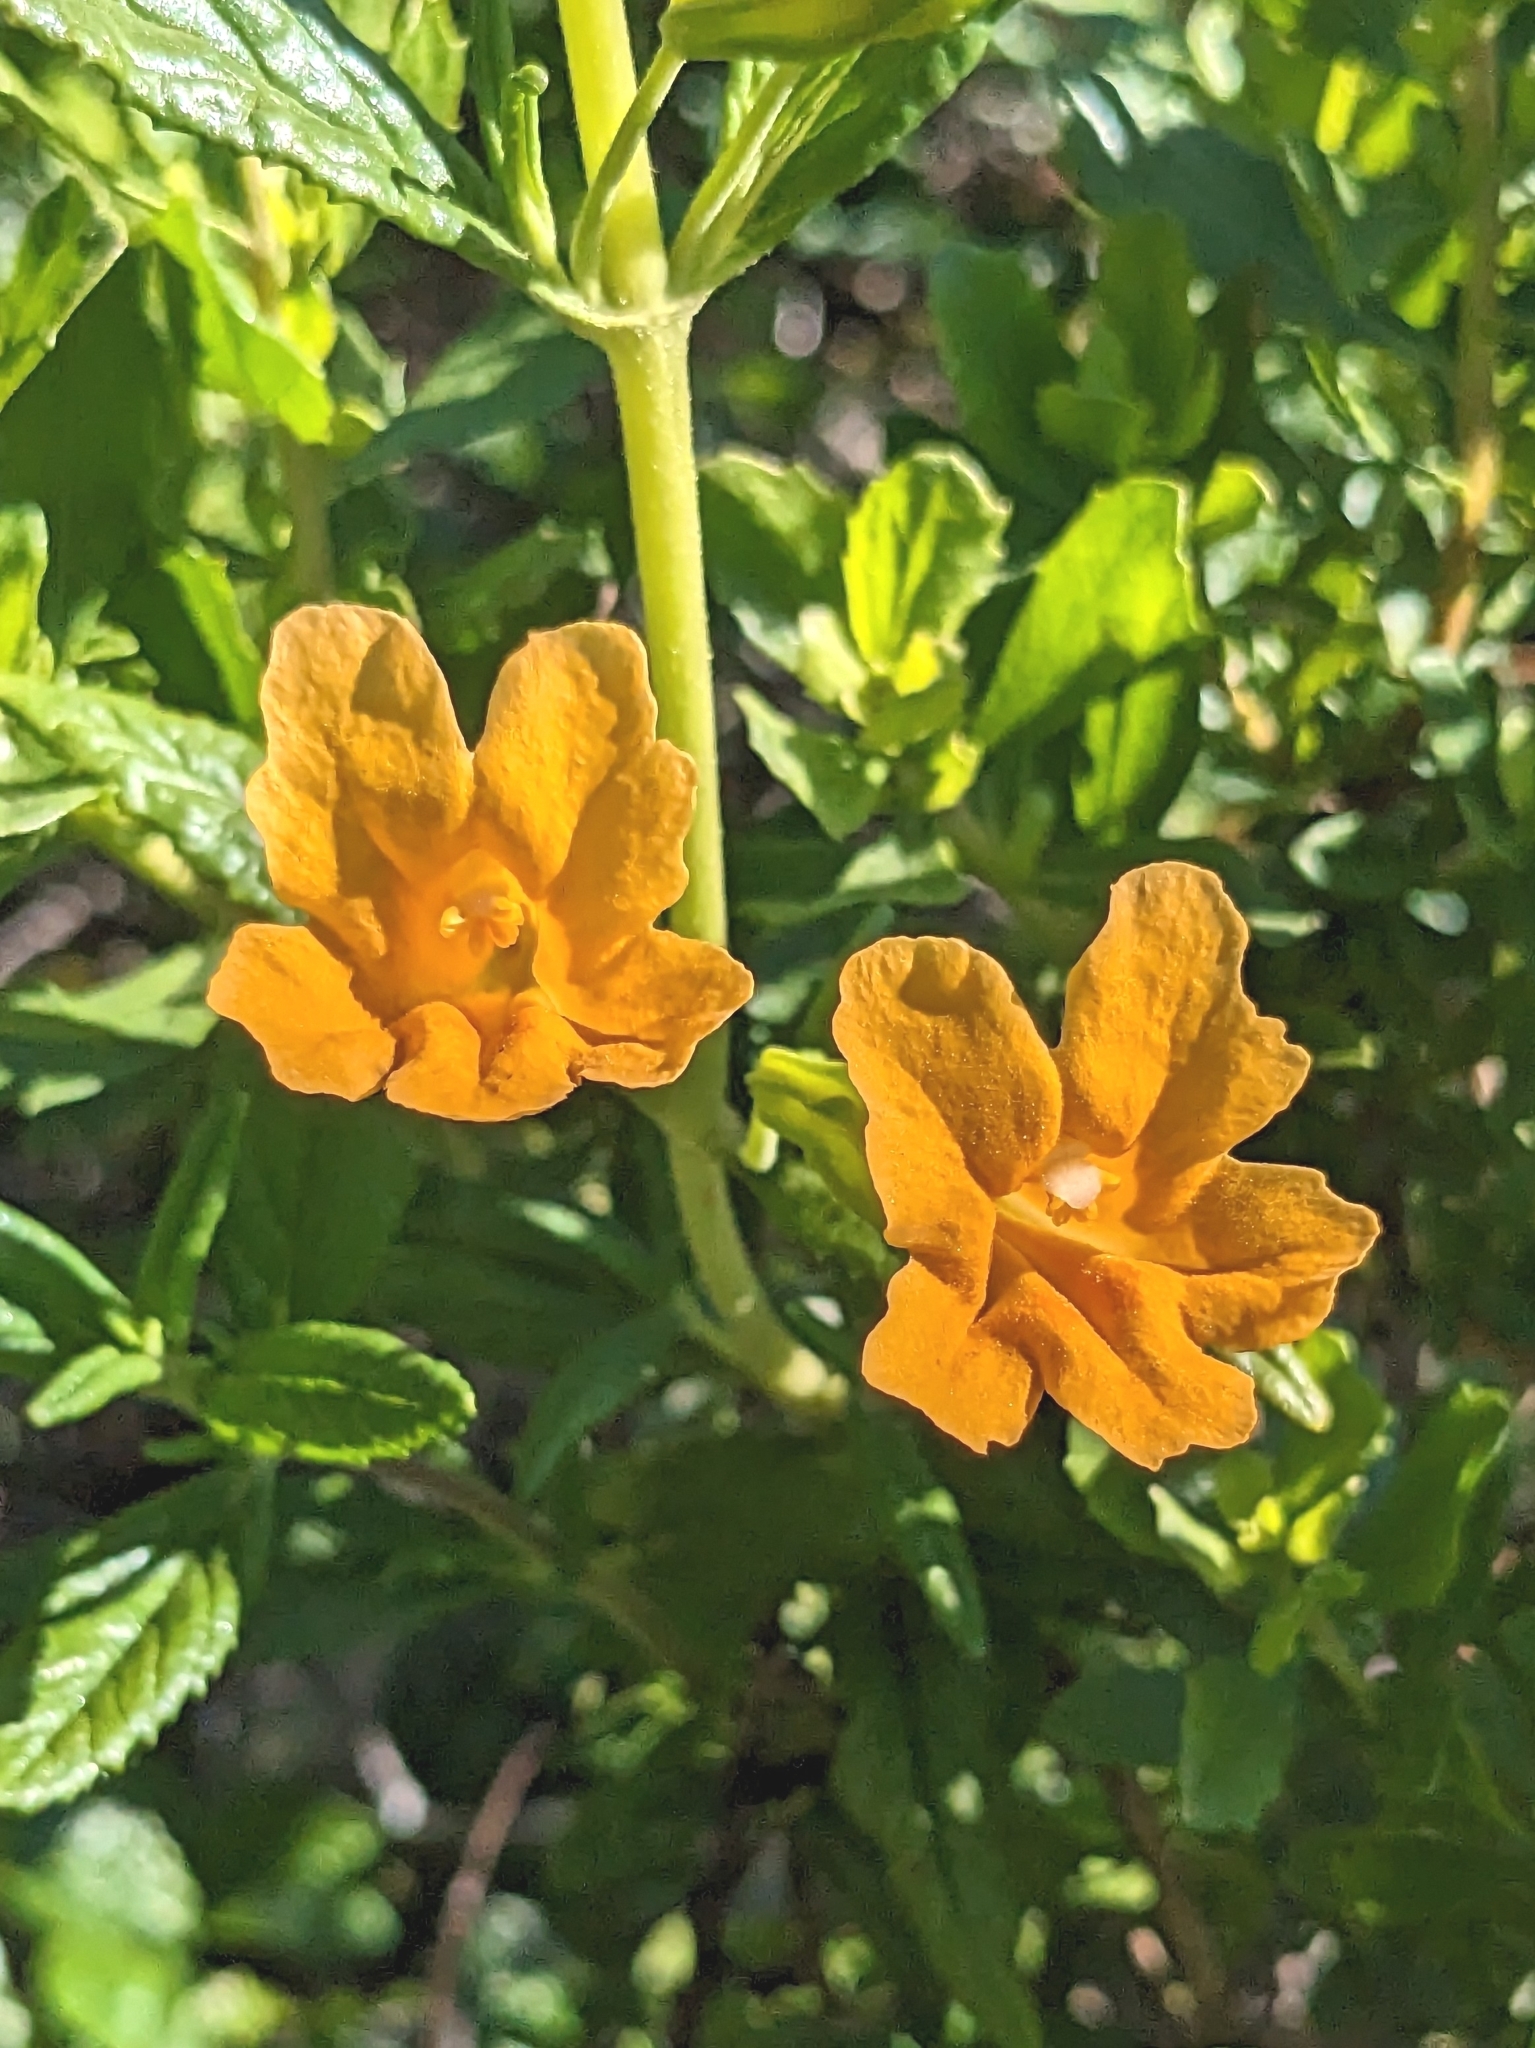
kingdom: Plantae
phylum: Tracheophyta
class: Magnoliopsida
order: Lamiales
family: Phrymaceae
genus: Diplacus
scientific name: Diplacus aurantiacus
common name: Bush monkey-flower
